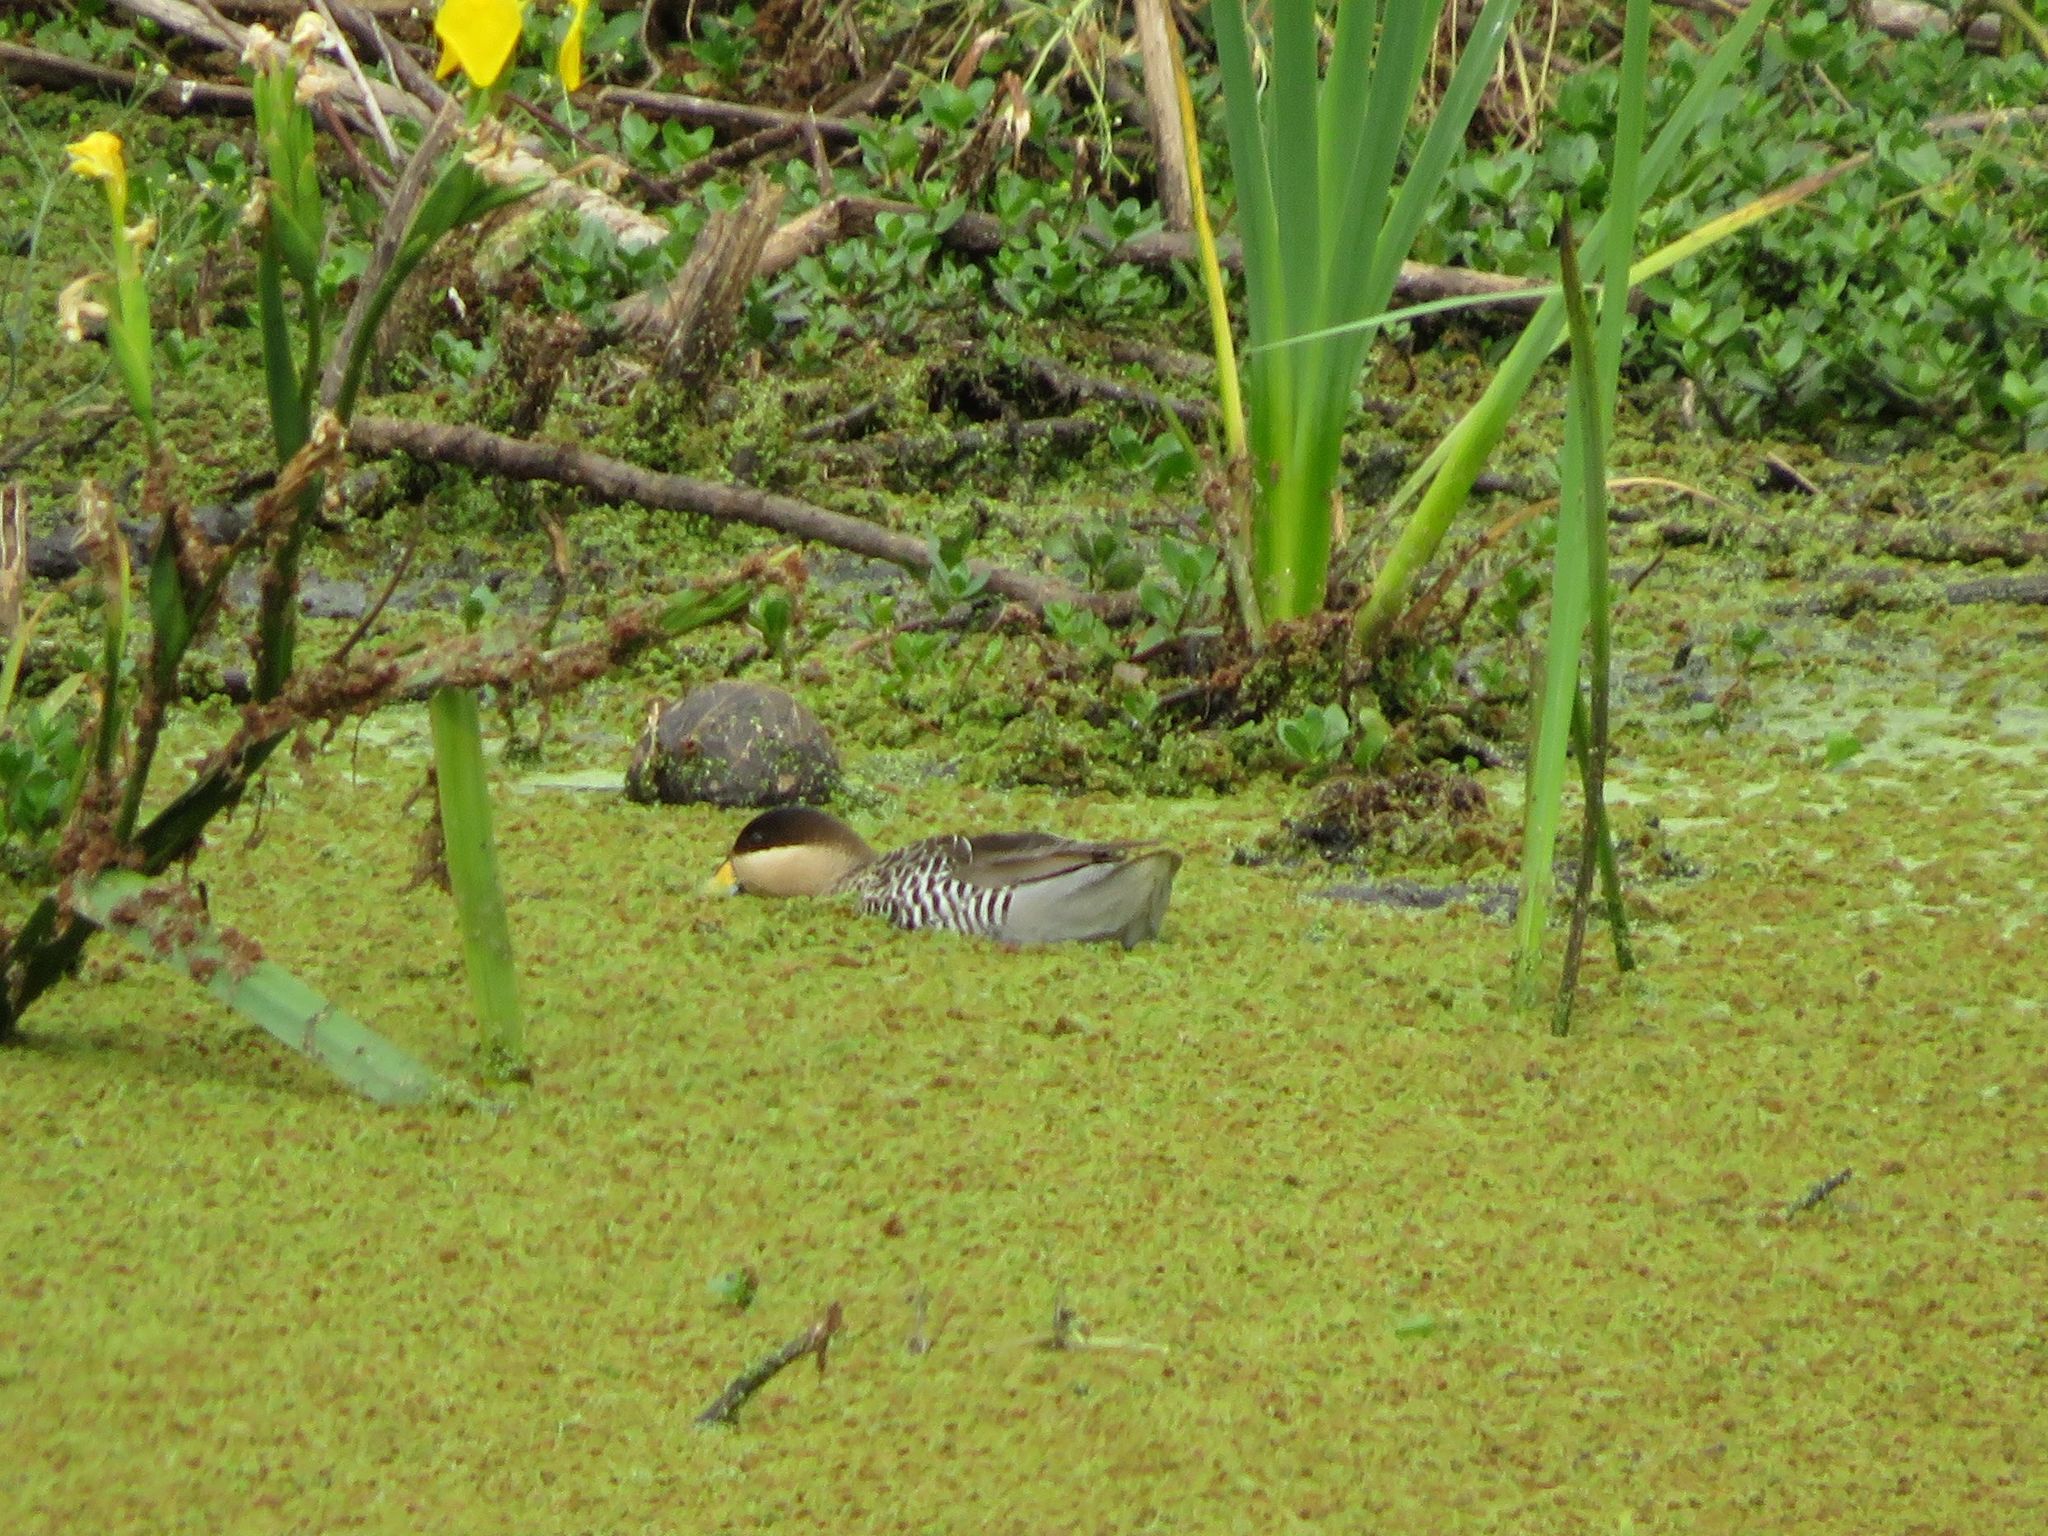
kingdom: Animalia
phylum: Chordata
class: Aves
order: Anseriformes
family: Anatidae
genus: Spatula
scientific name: Spatula versicolor
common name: Silver teal
